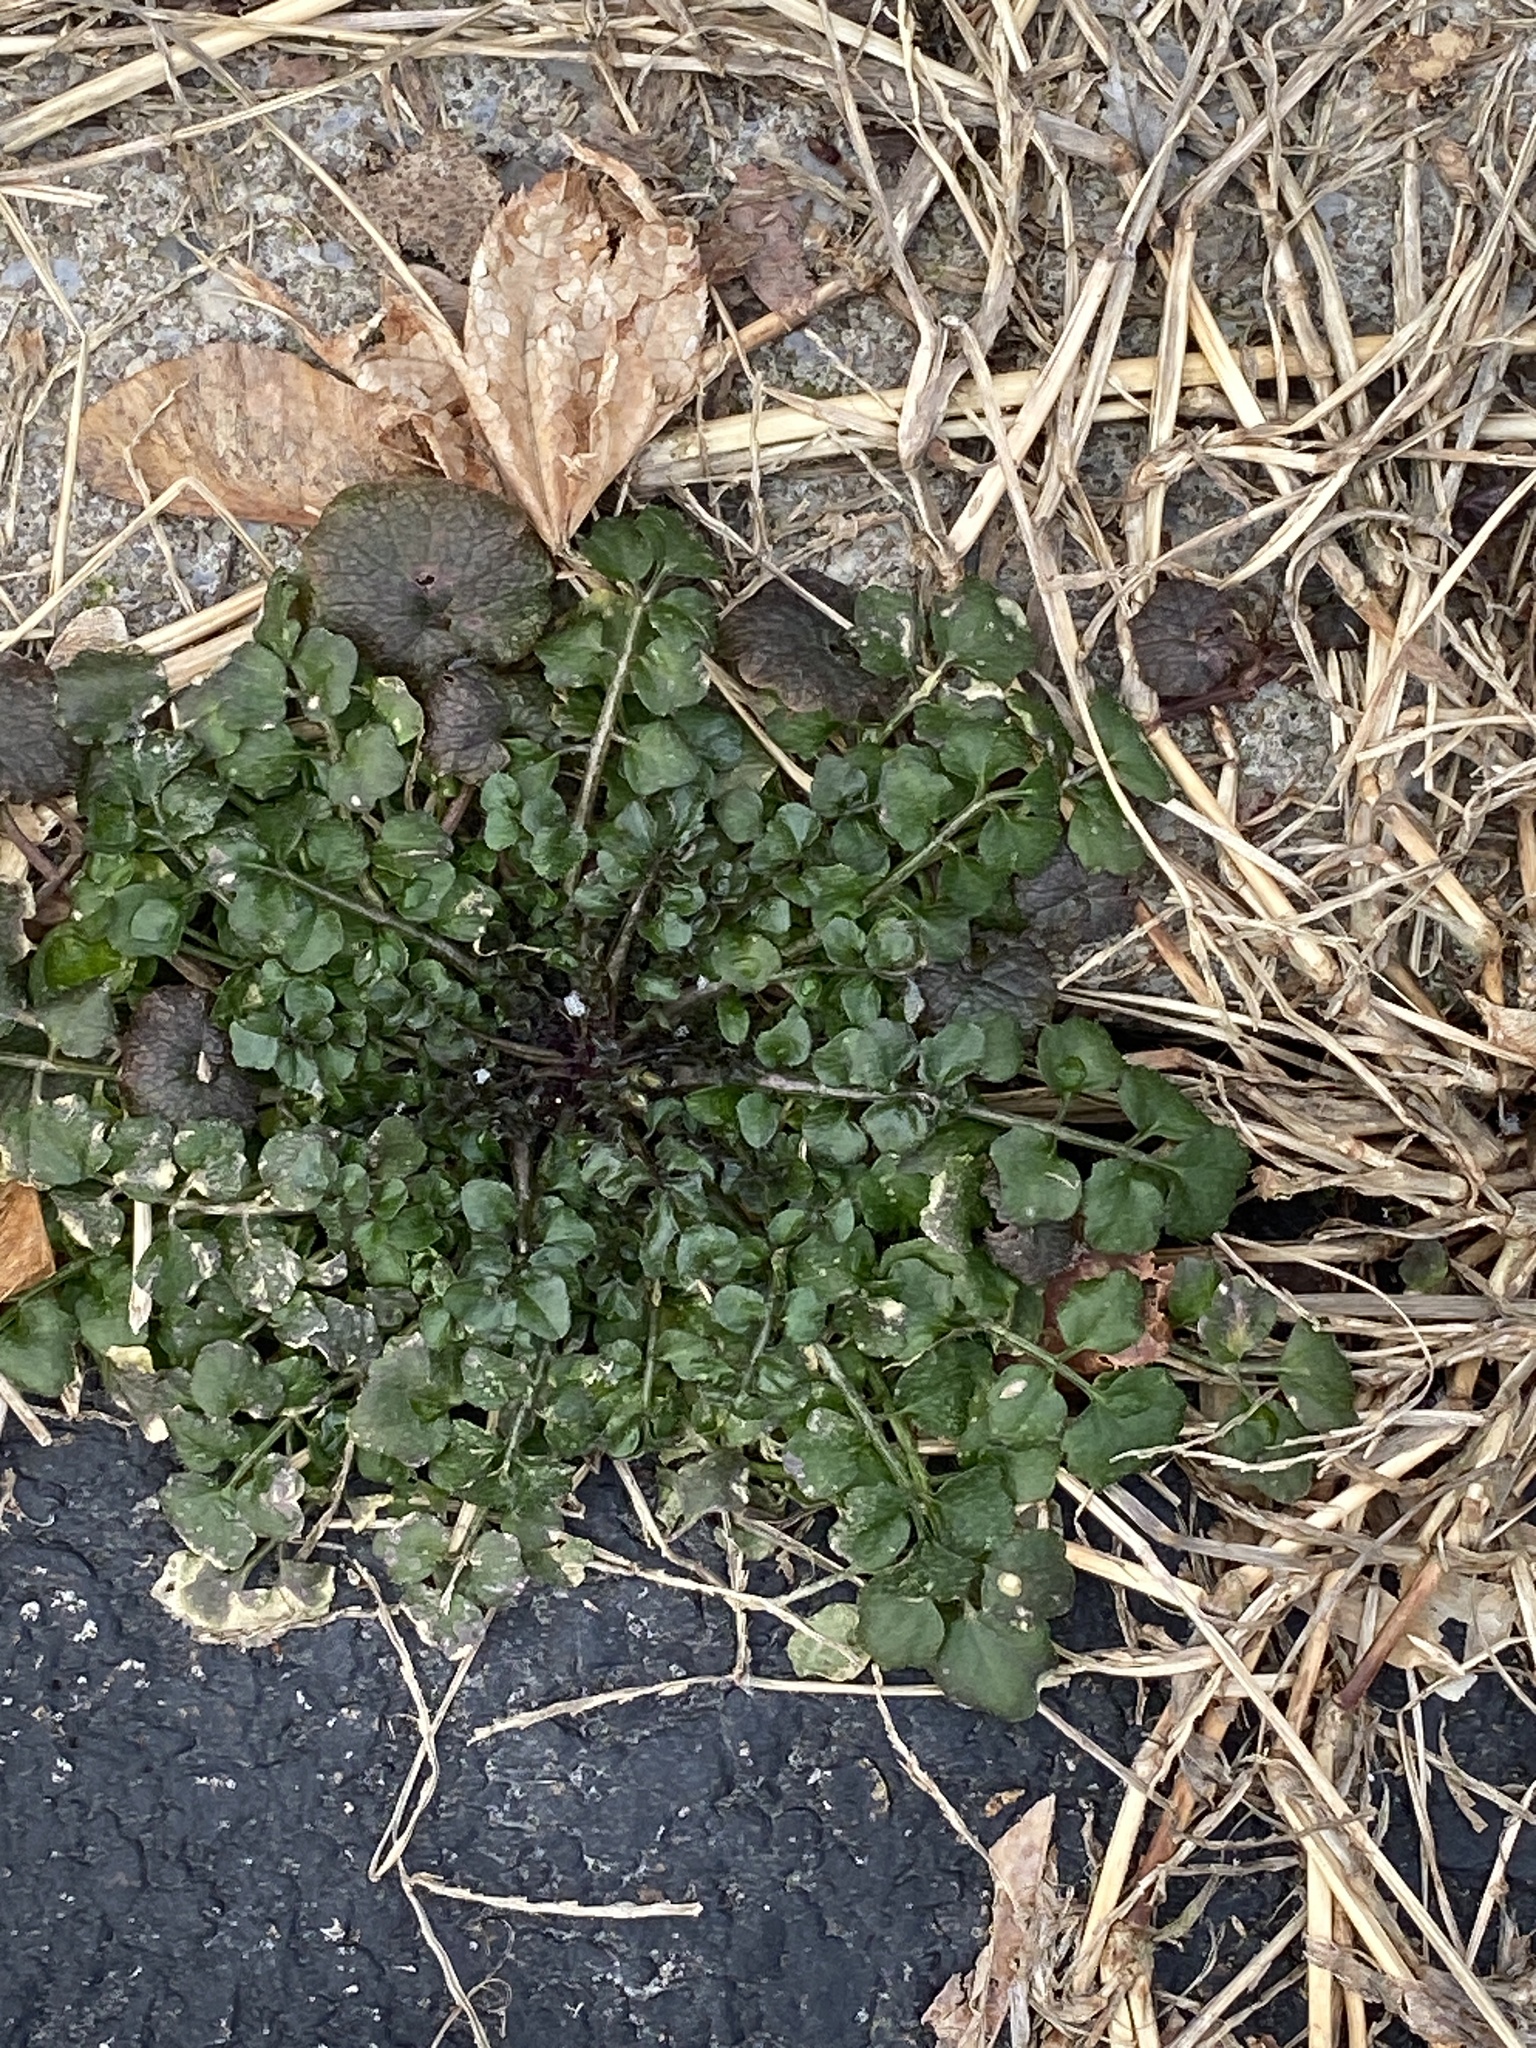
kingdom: Plantae
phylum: Tracheophyta
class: Magnoliopsida
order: Brassicales
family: Brassicaceae
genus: Cardamine
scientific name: Cardamine hirsuta
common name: Hairy bittercress
